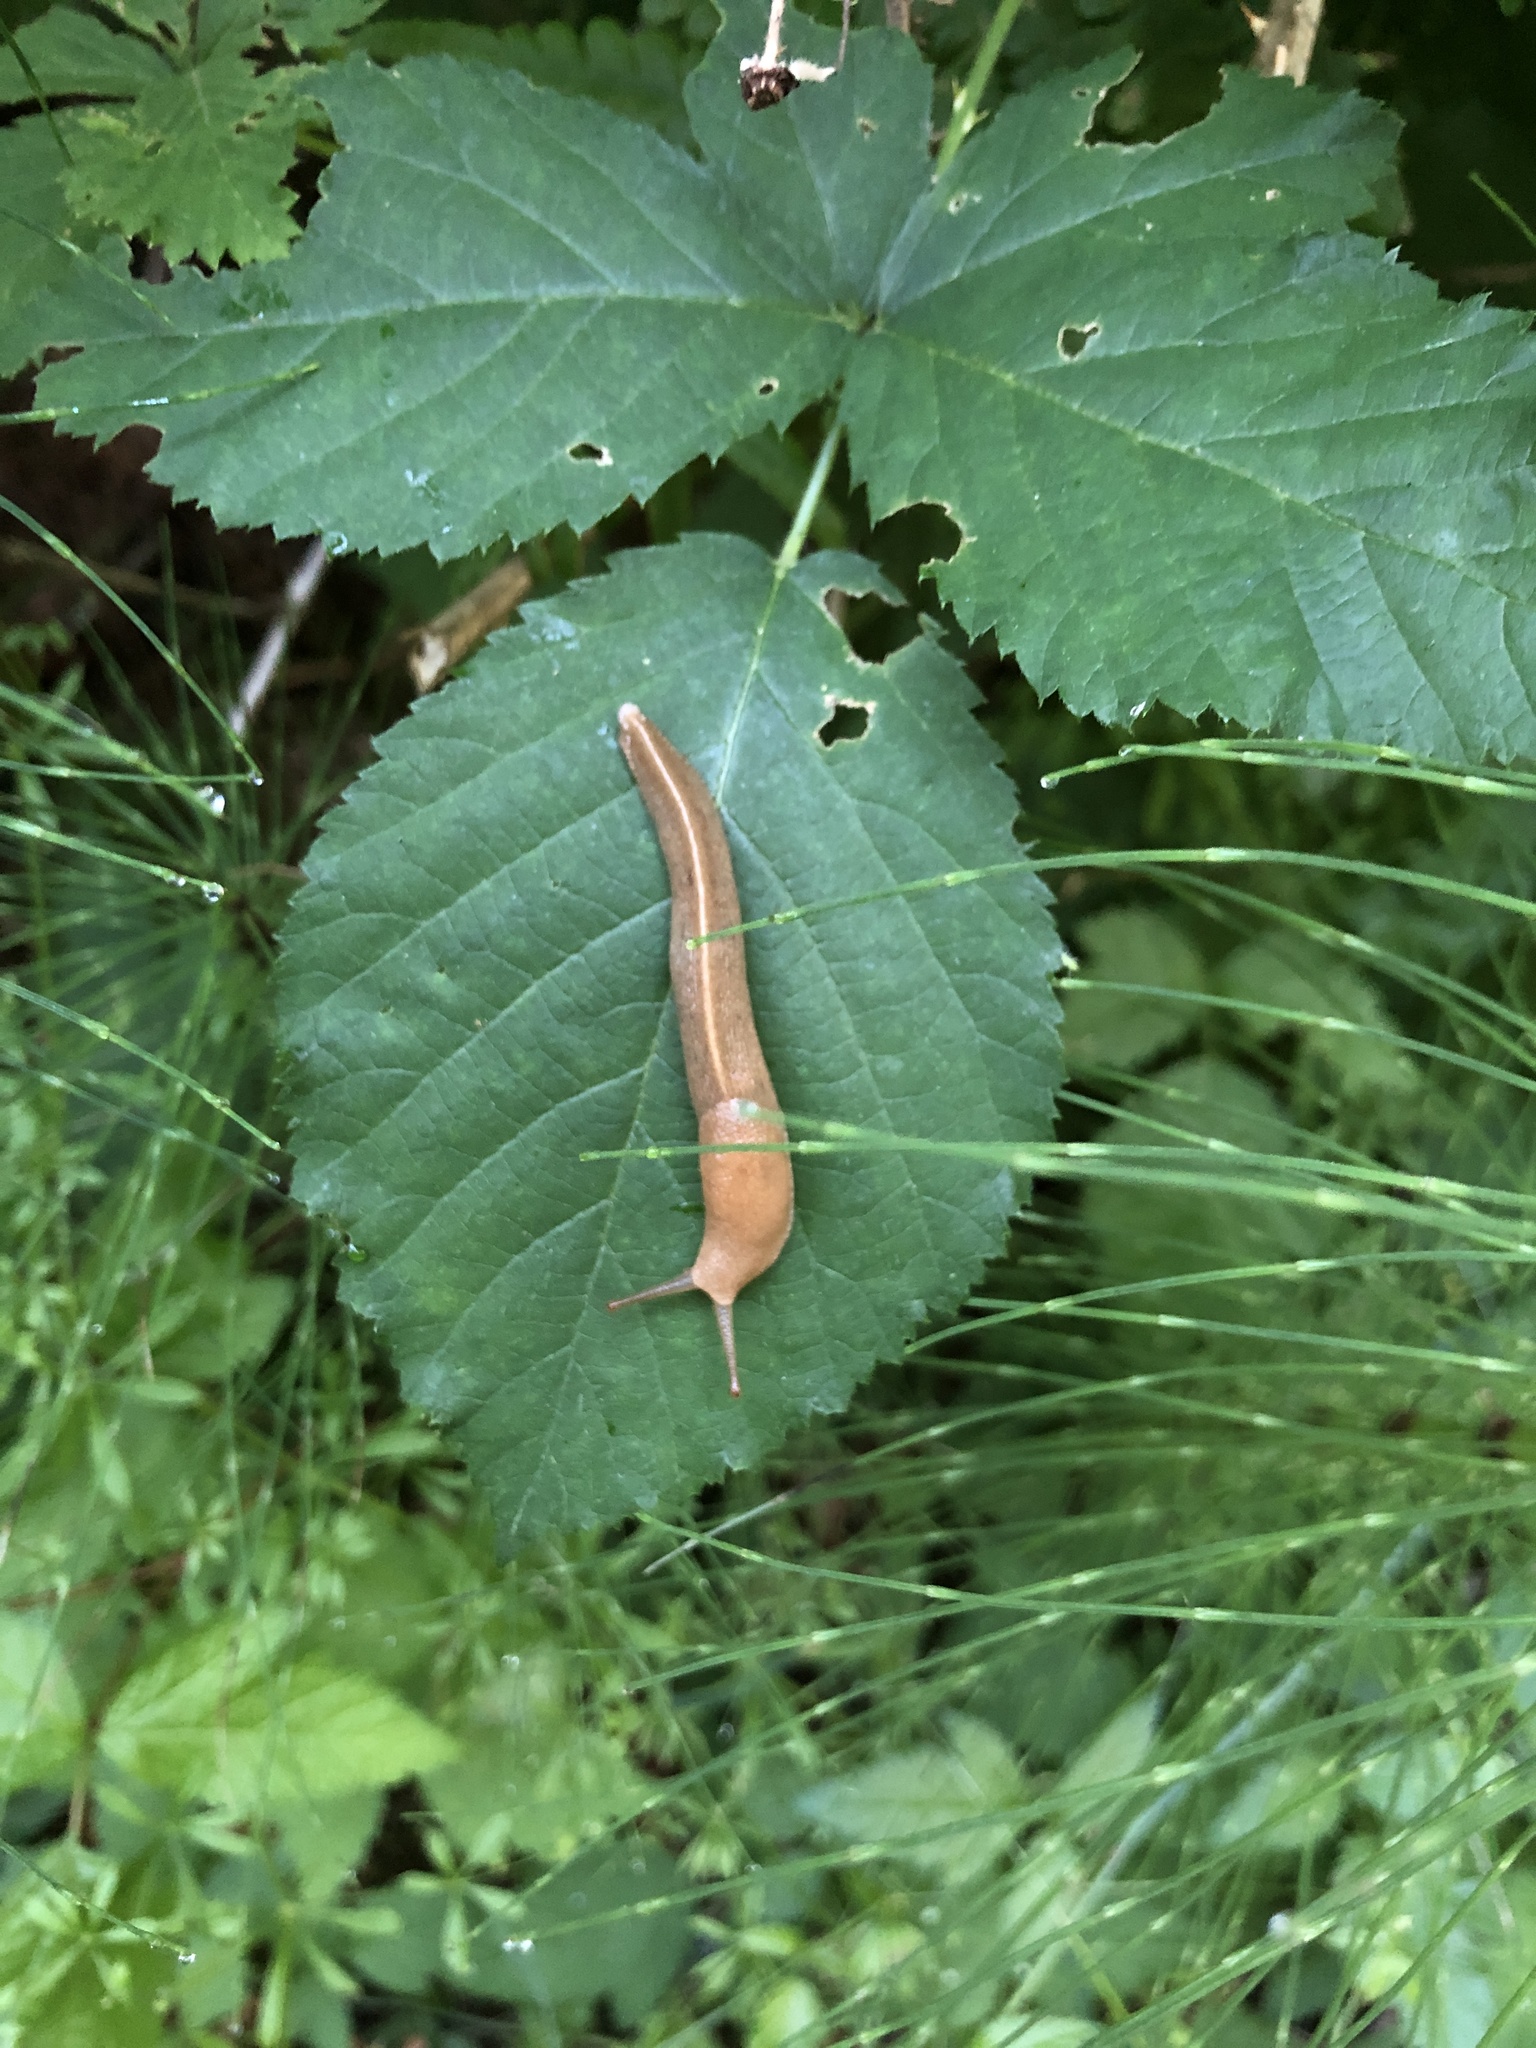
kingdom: Animalia
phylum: Mollusca
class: Gastropoda
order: Stylommatophora
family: Ariolimacidae
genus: Ariolimax
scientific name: Ariolimax columbianus
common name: Pacific banana slug
